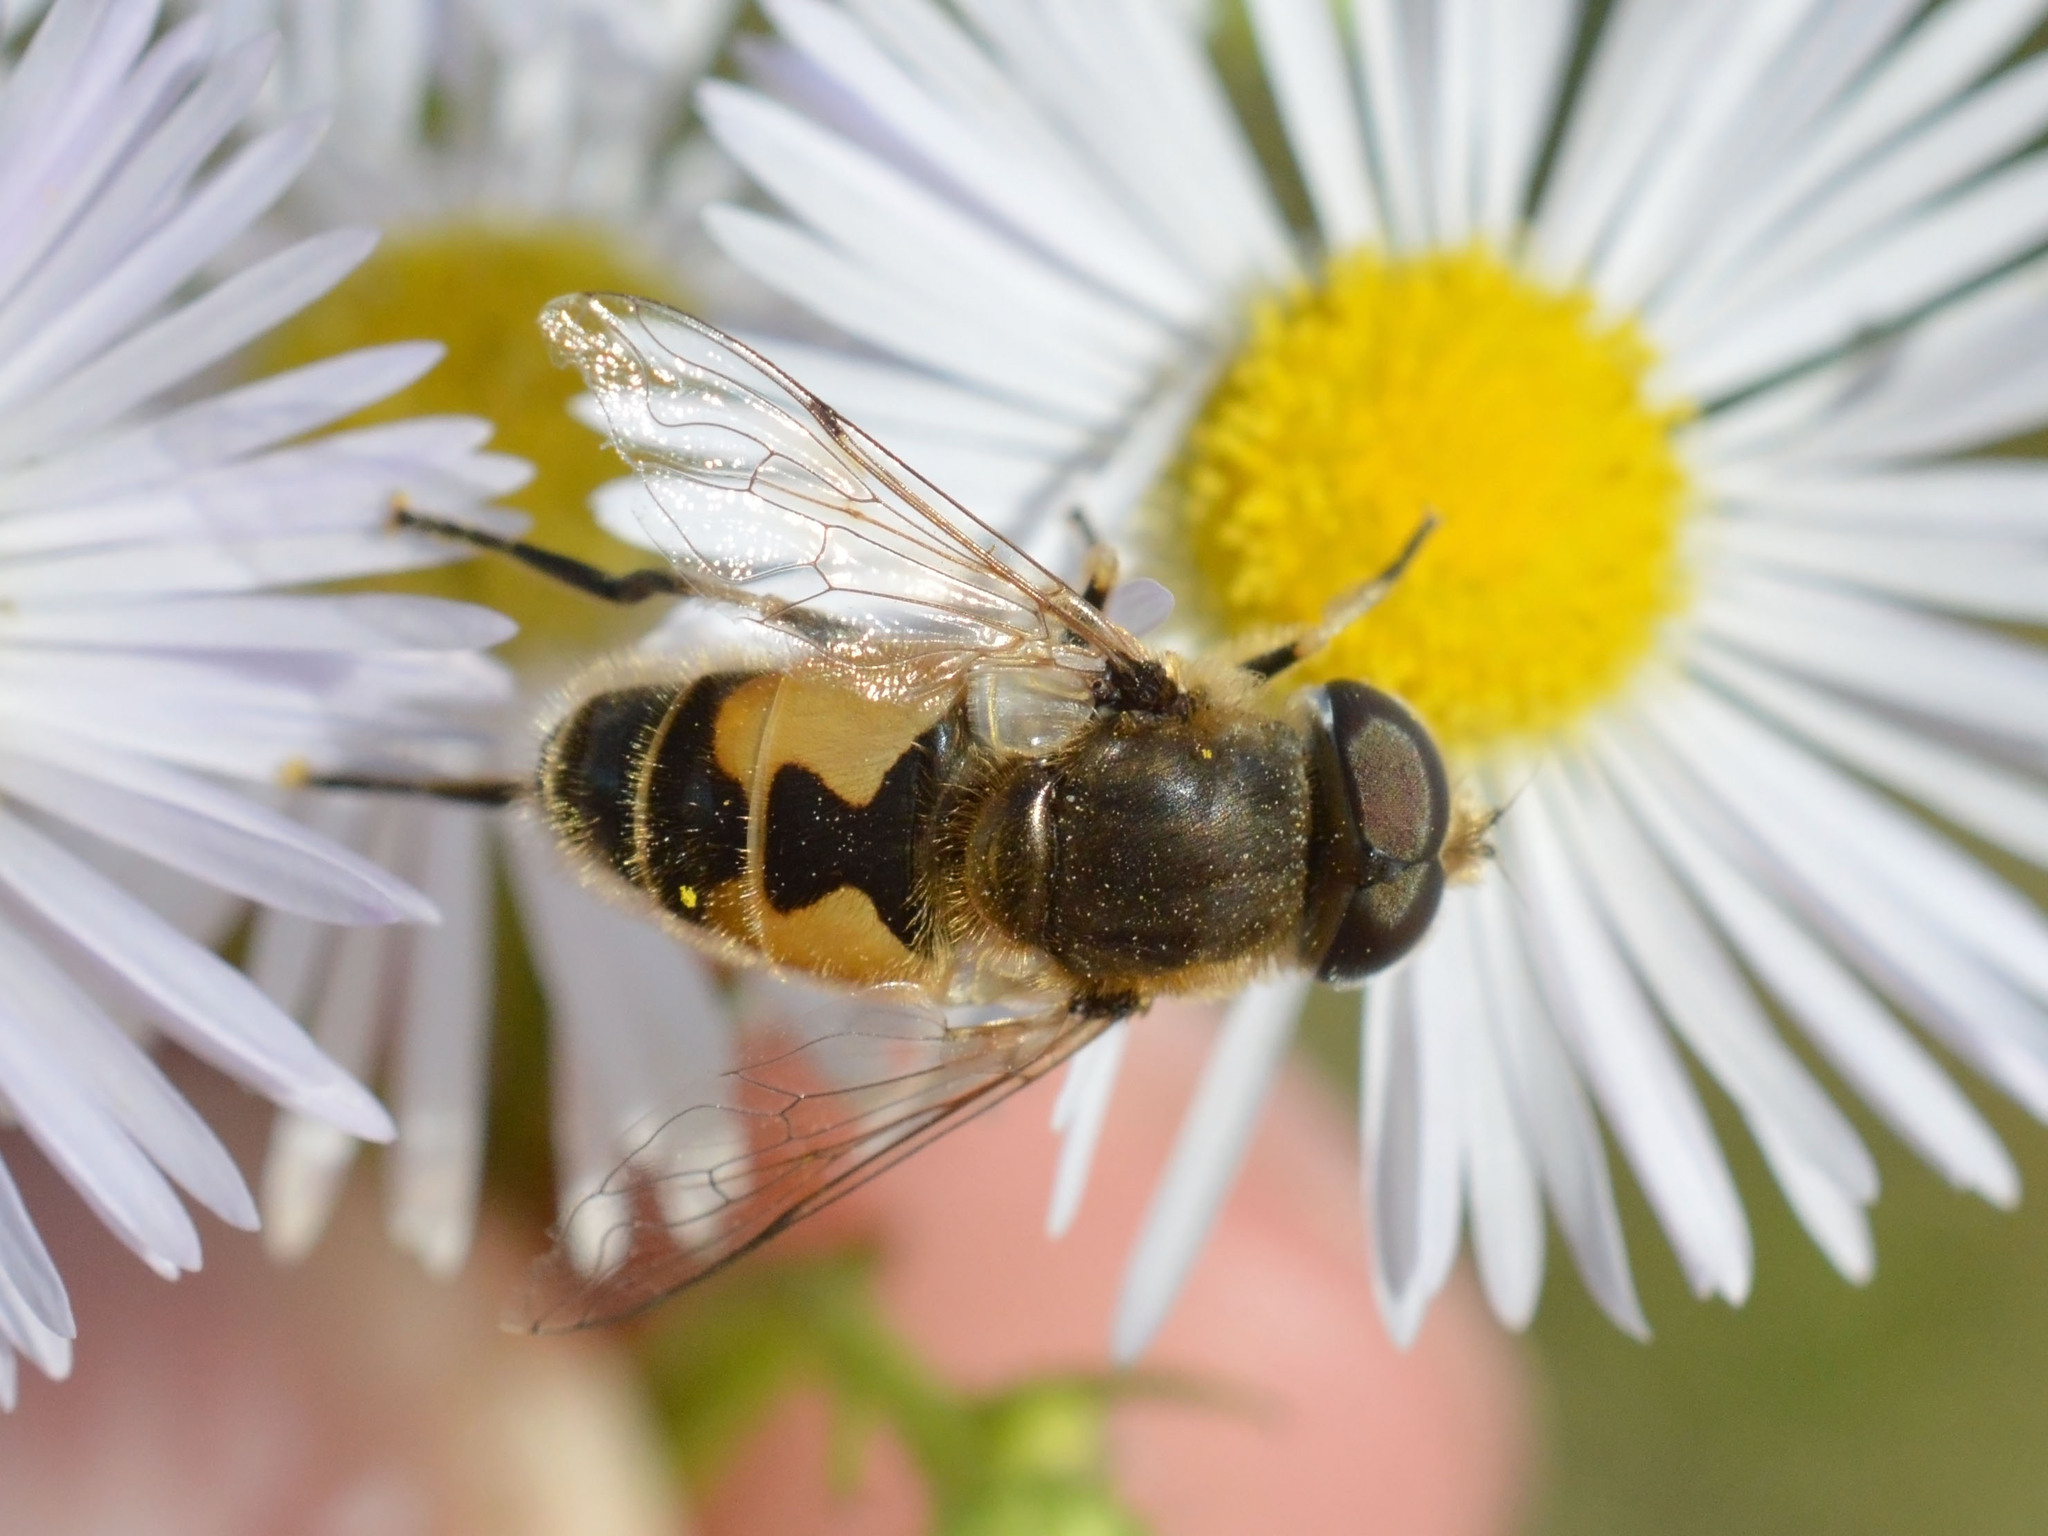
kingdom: Animalia
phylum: Arthropoda
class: Insecta
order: Diptera
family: Syrphidae
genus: Eristalis
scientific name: Eristalis arbustorum
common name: Hover fly
